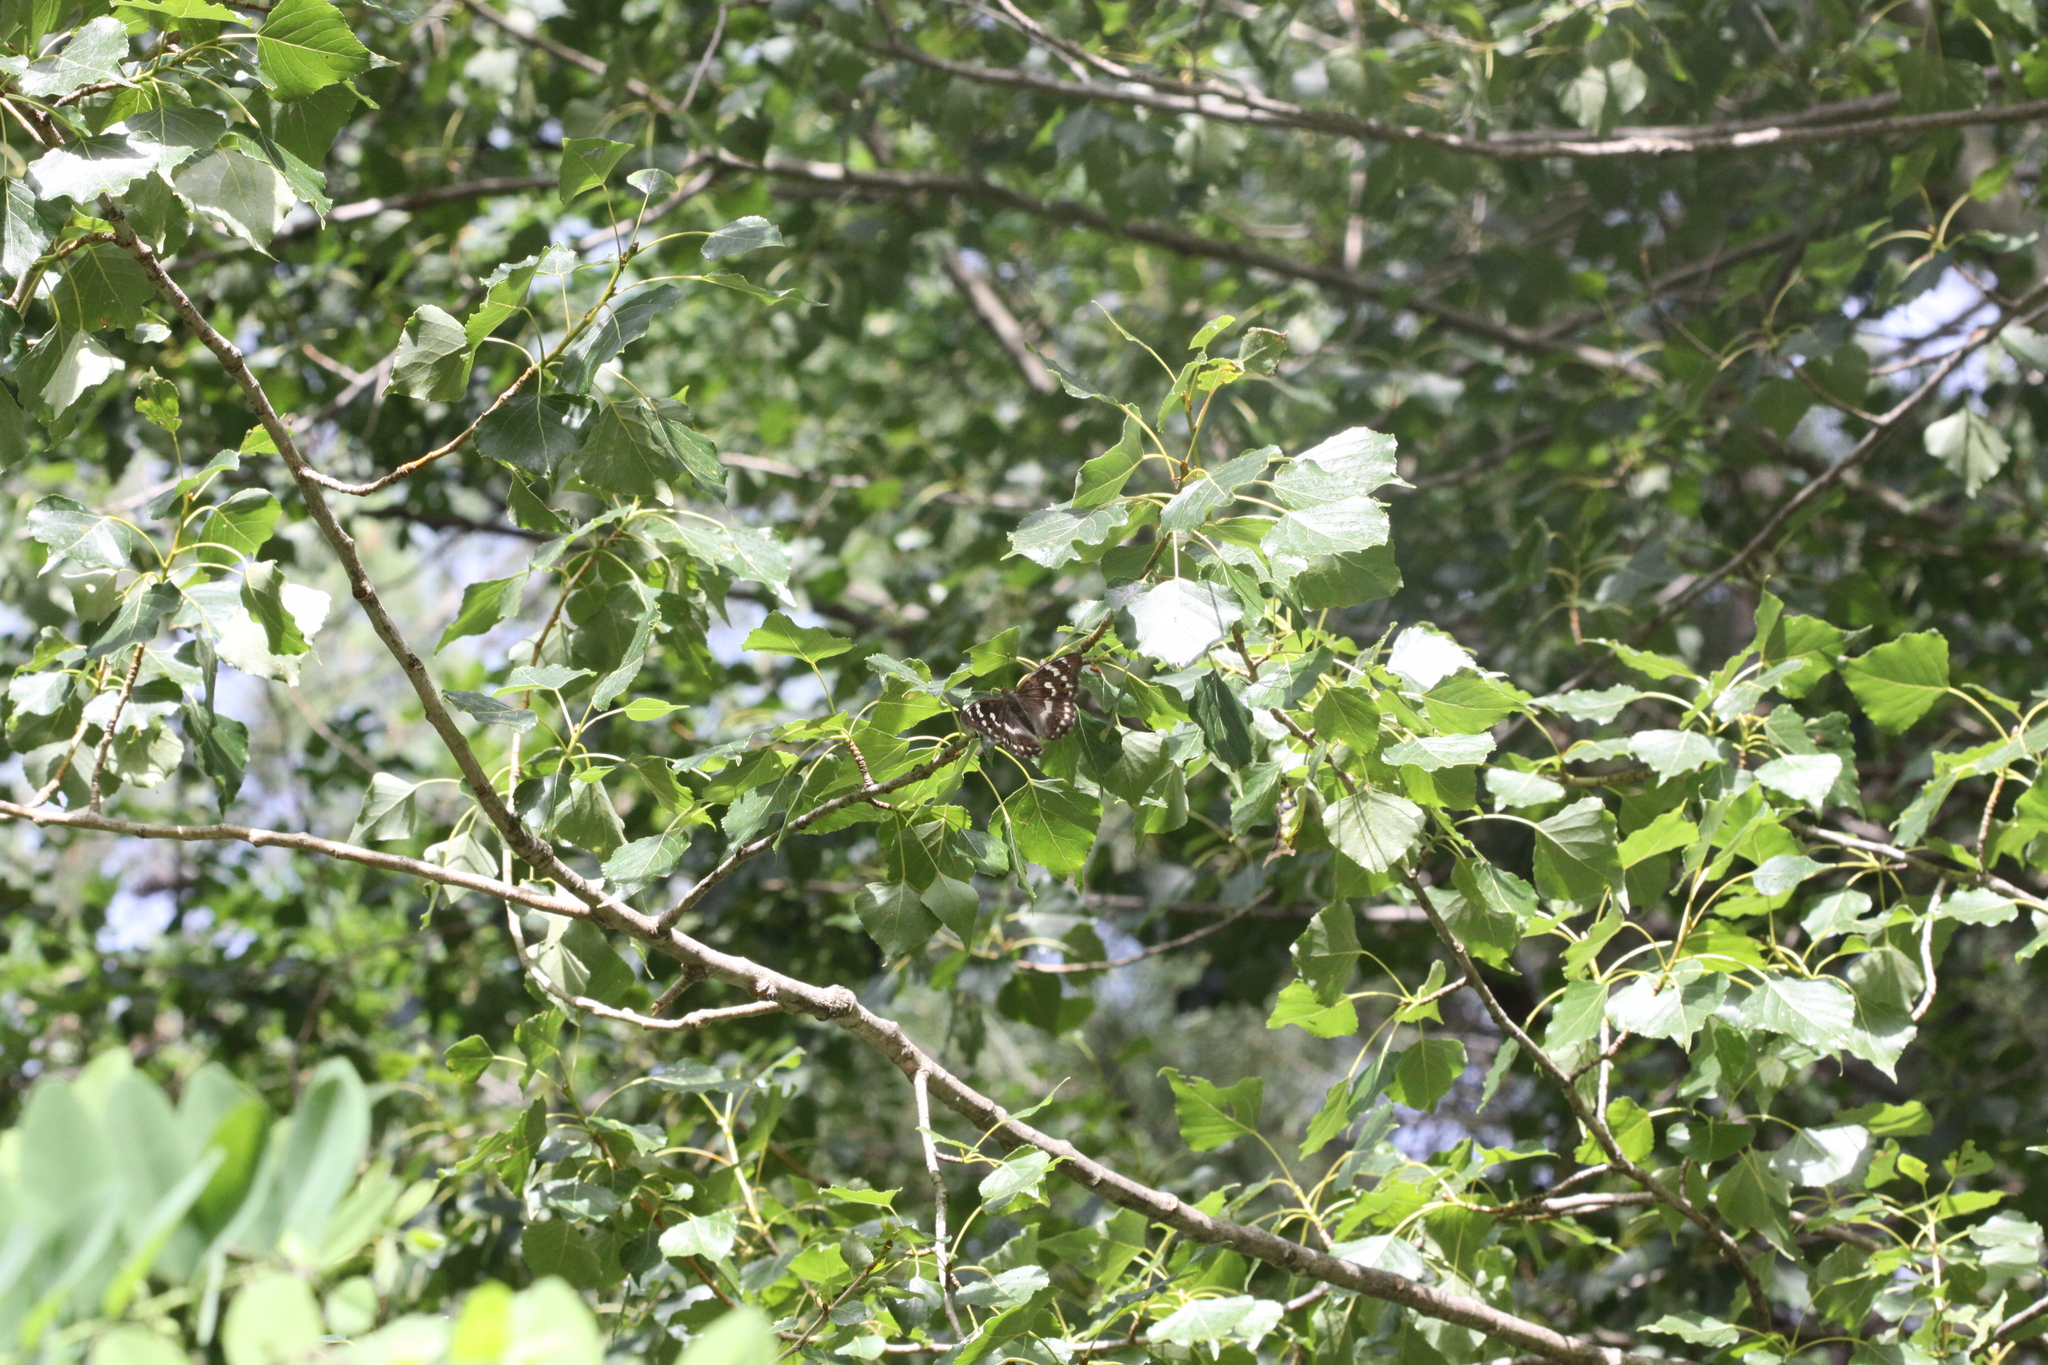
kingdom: Animalia
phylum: Arthropoda
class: Insecta
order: Lepidoptera
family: Nymphalidae
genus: Apatura
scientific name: Apatura ilia
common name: Lesser purple emperor
